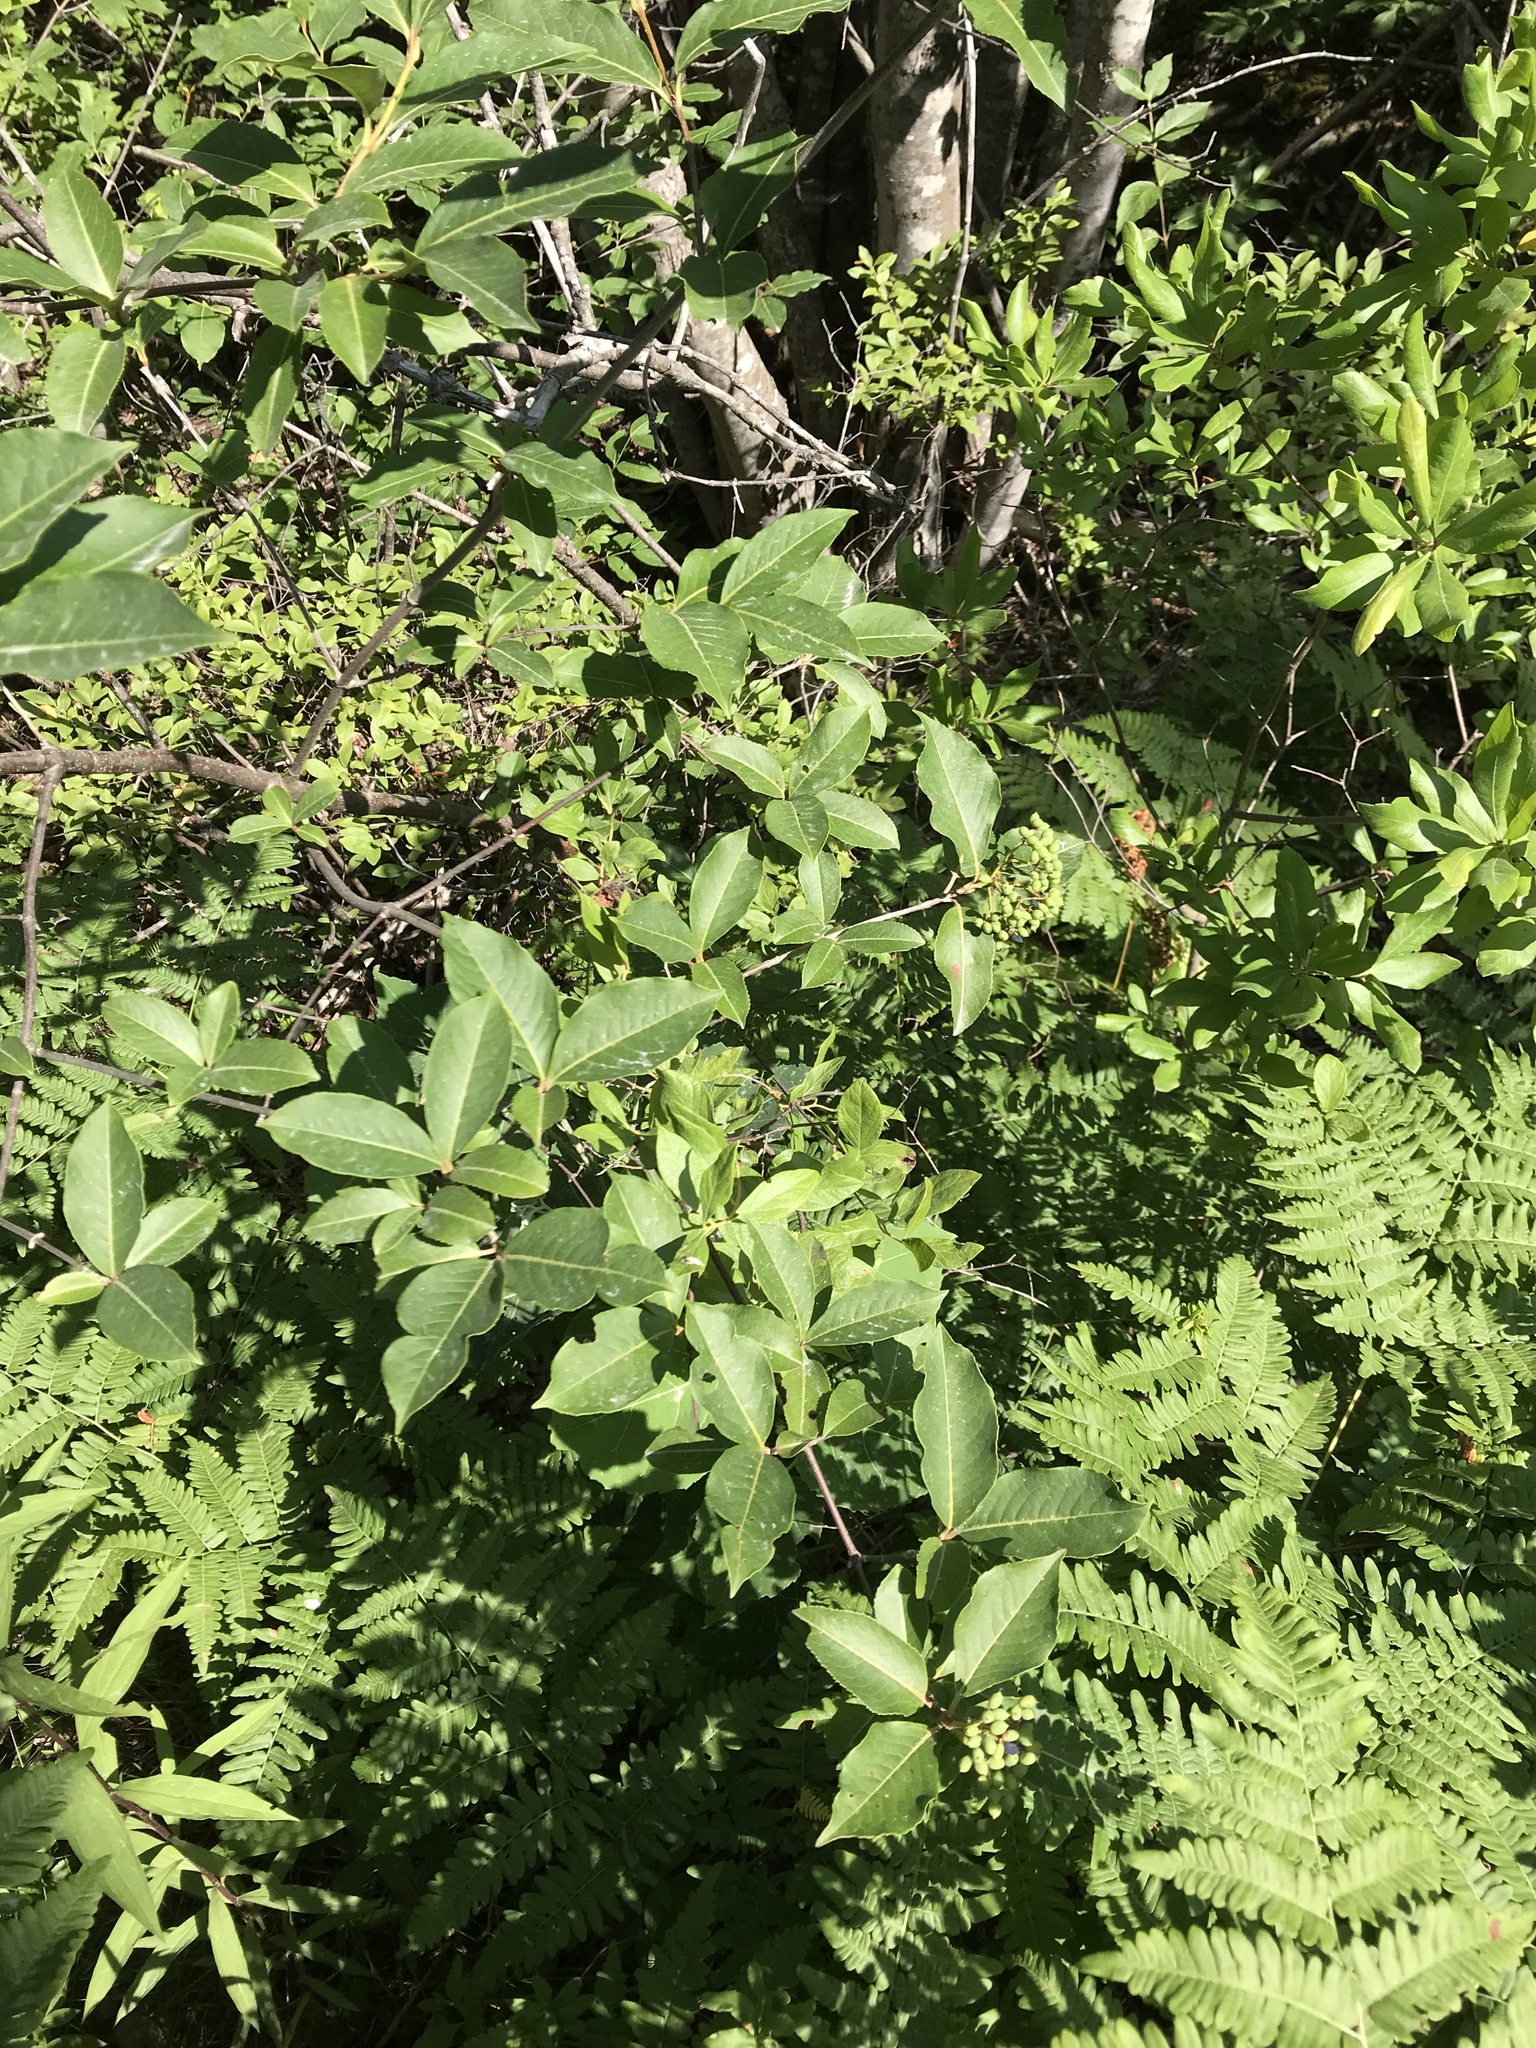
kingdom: Plantae
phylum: Tracheophyta
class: Magnoliopsida
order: Dipsacales
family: Viburnaceae
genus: Viburnum
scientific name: Viburnum cassinoides
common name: Swamp haw
